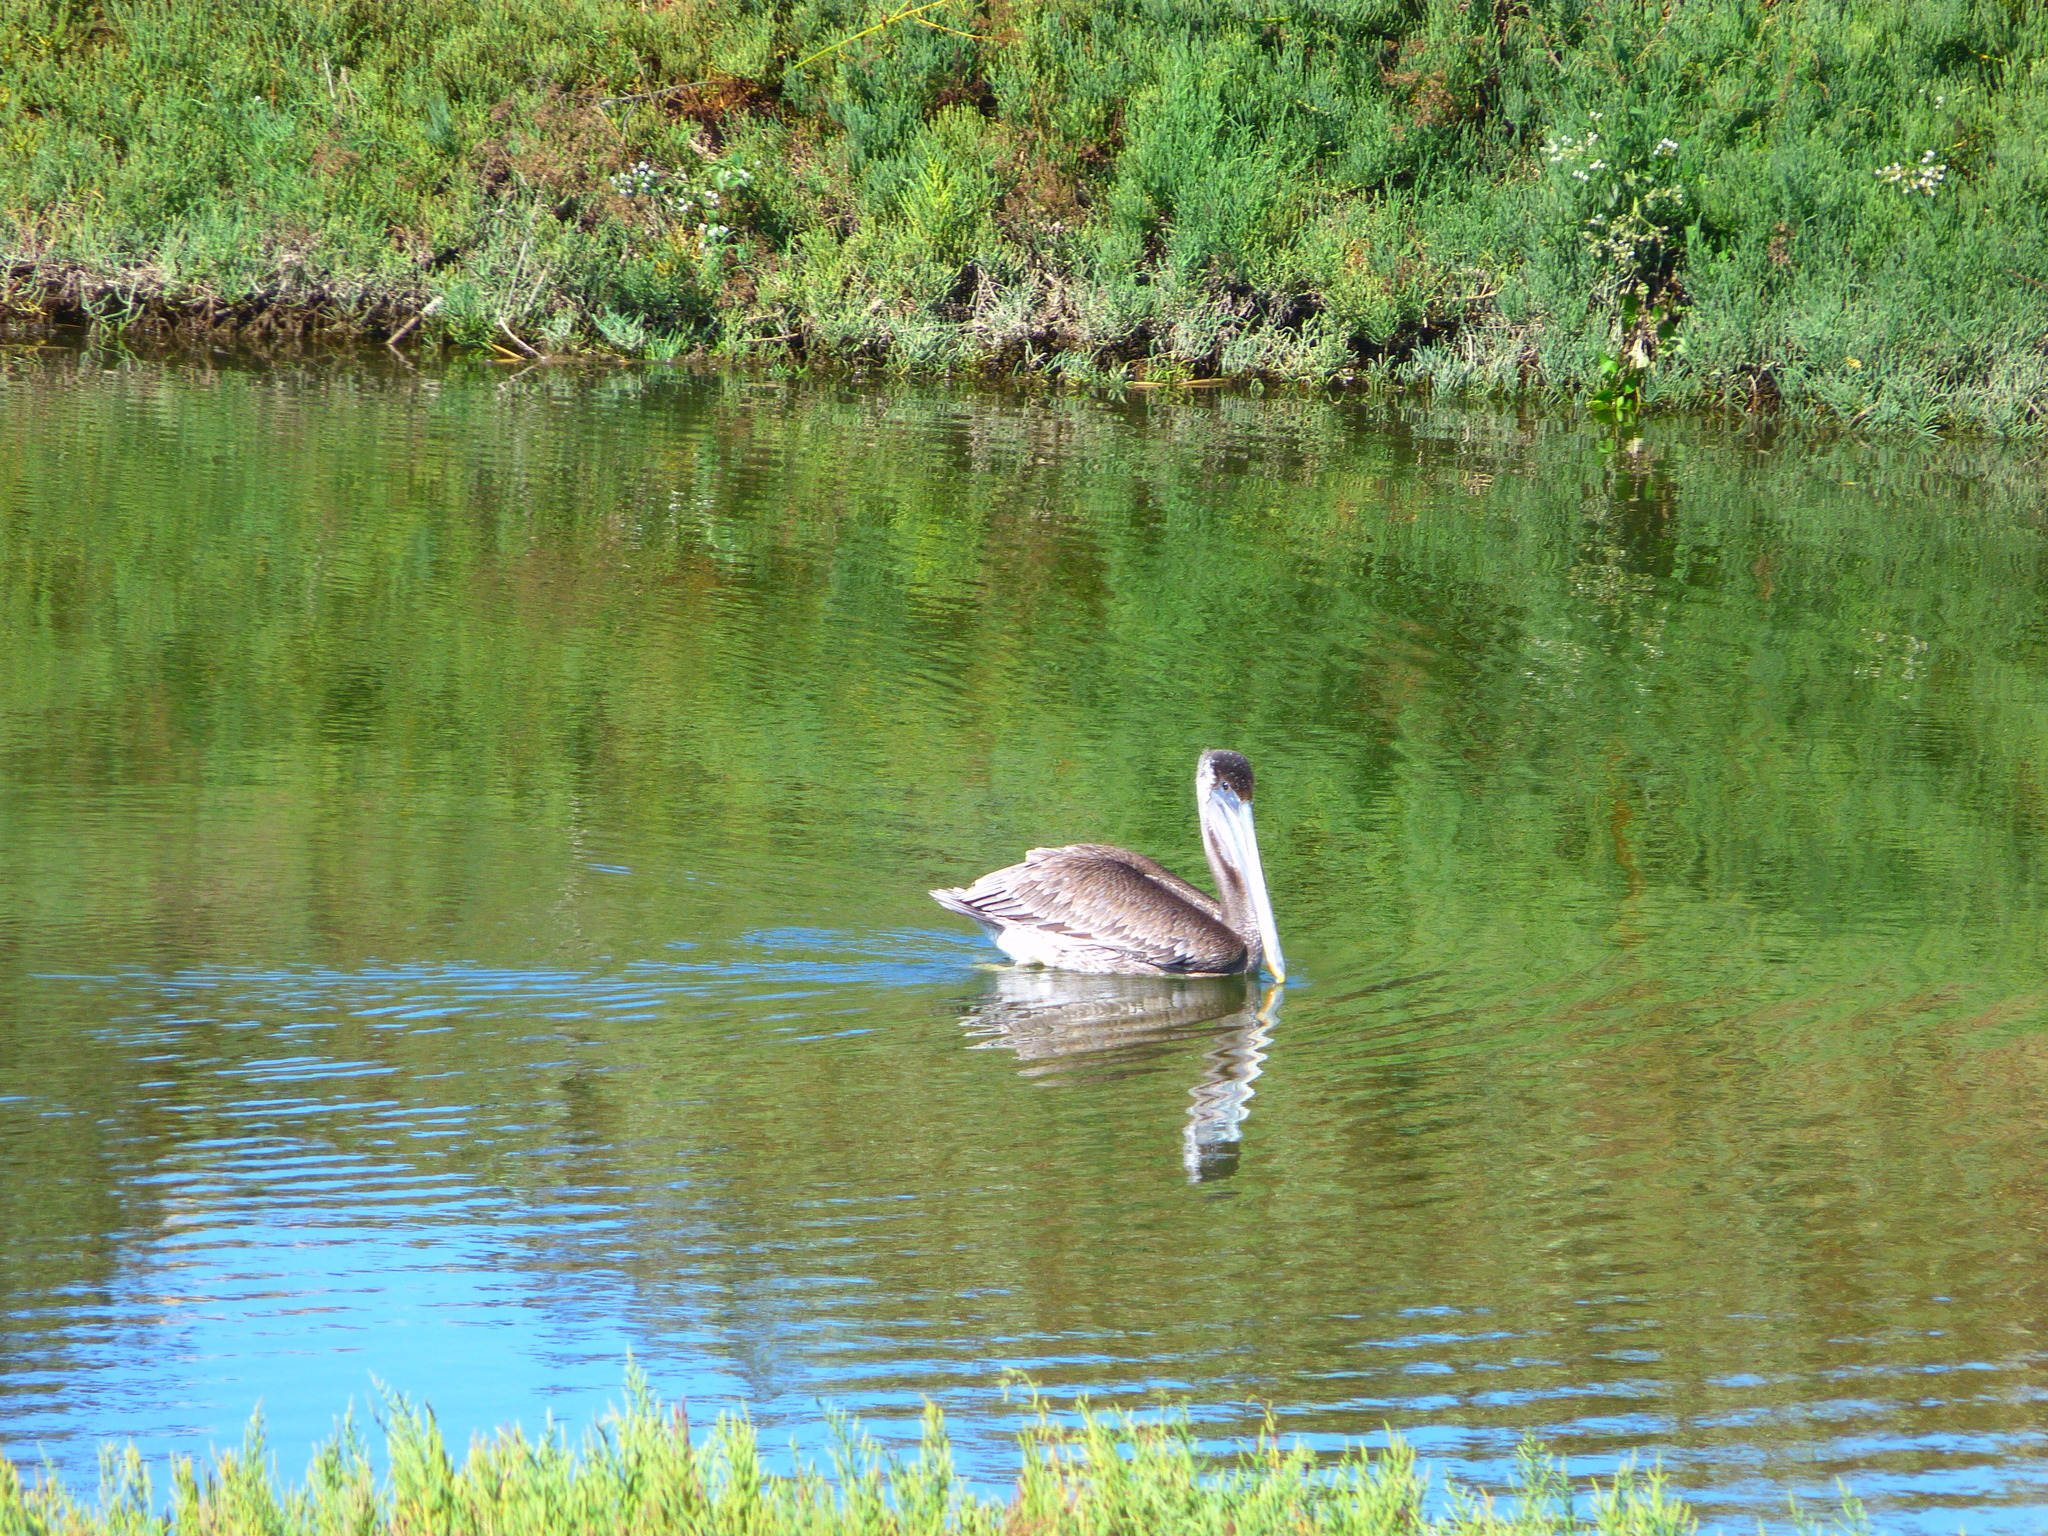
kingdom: Animalia
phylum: Chordata
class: Aves
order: Pelecaniformes
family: Pelecanidae
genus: Pelecanus
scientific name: Pelecanus occidentalis
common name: Brown pelican
